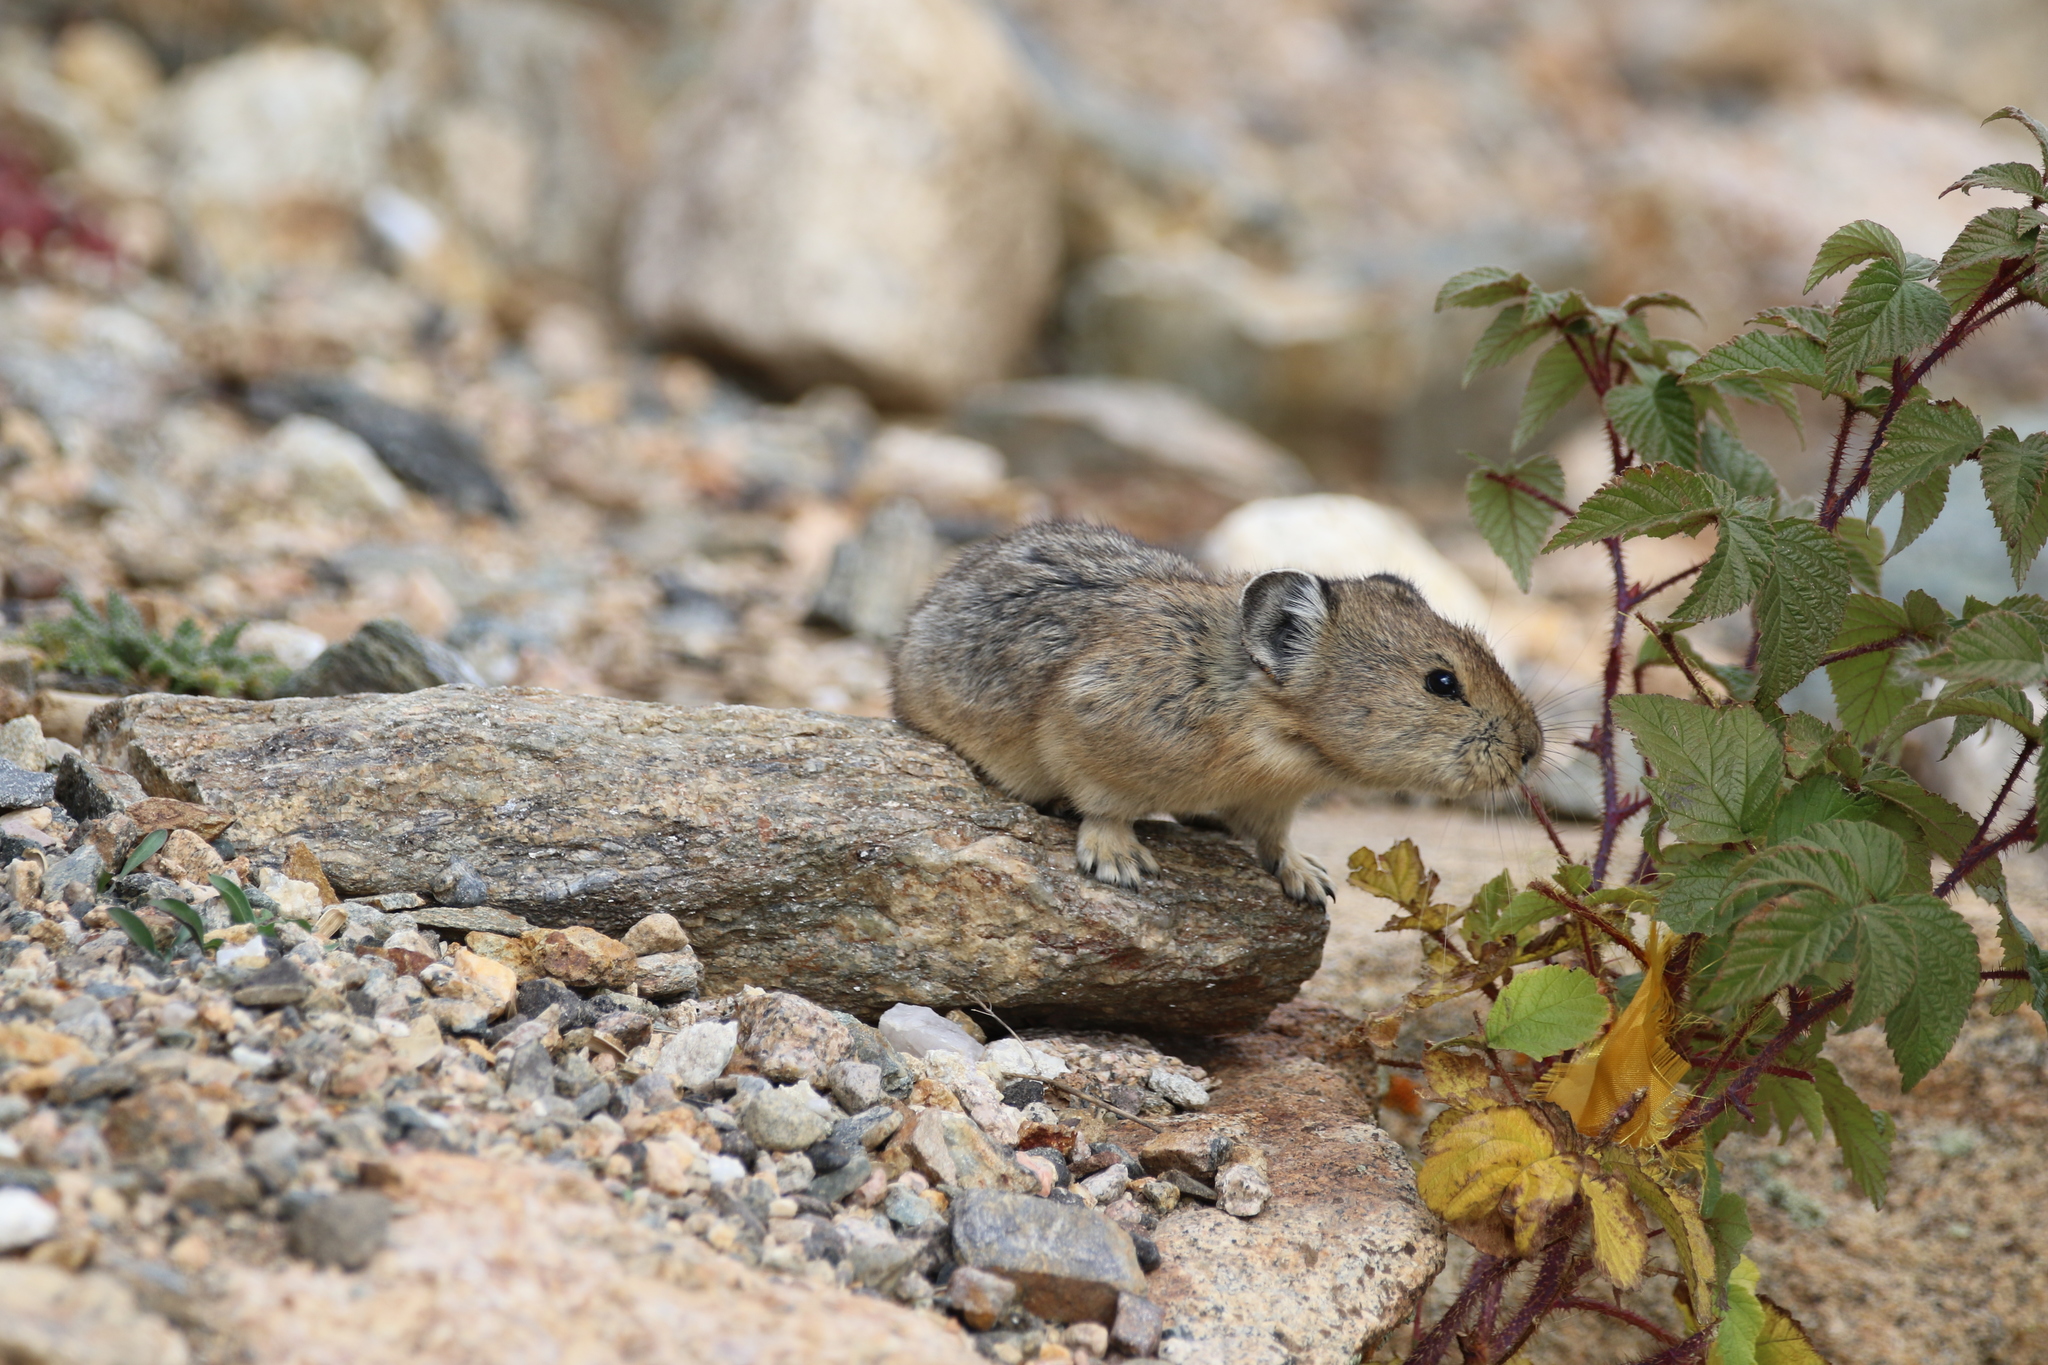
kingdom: Animalia
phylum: Chordata
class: Mammalia
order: Lagomorpha
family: Ochotonidae
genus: Ochotona
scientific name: Ochotona princeps
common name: American pika
